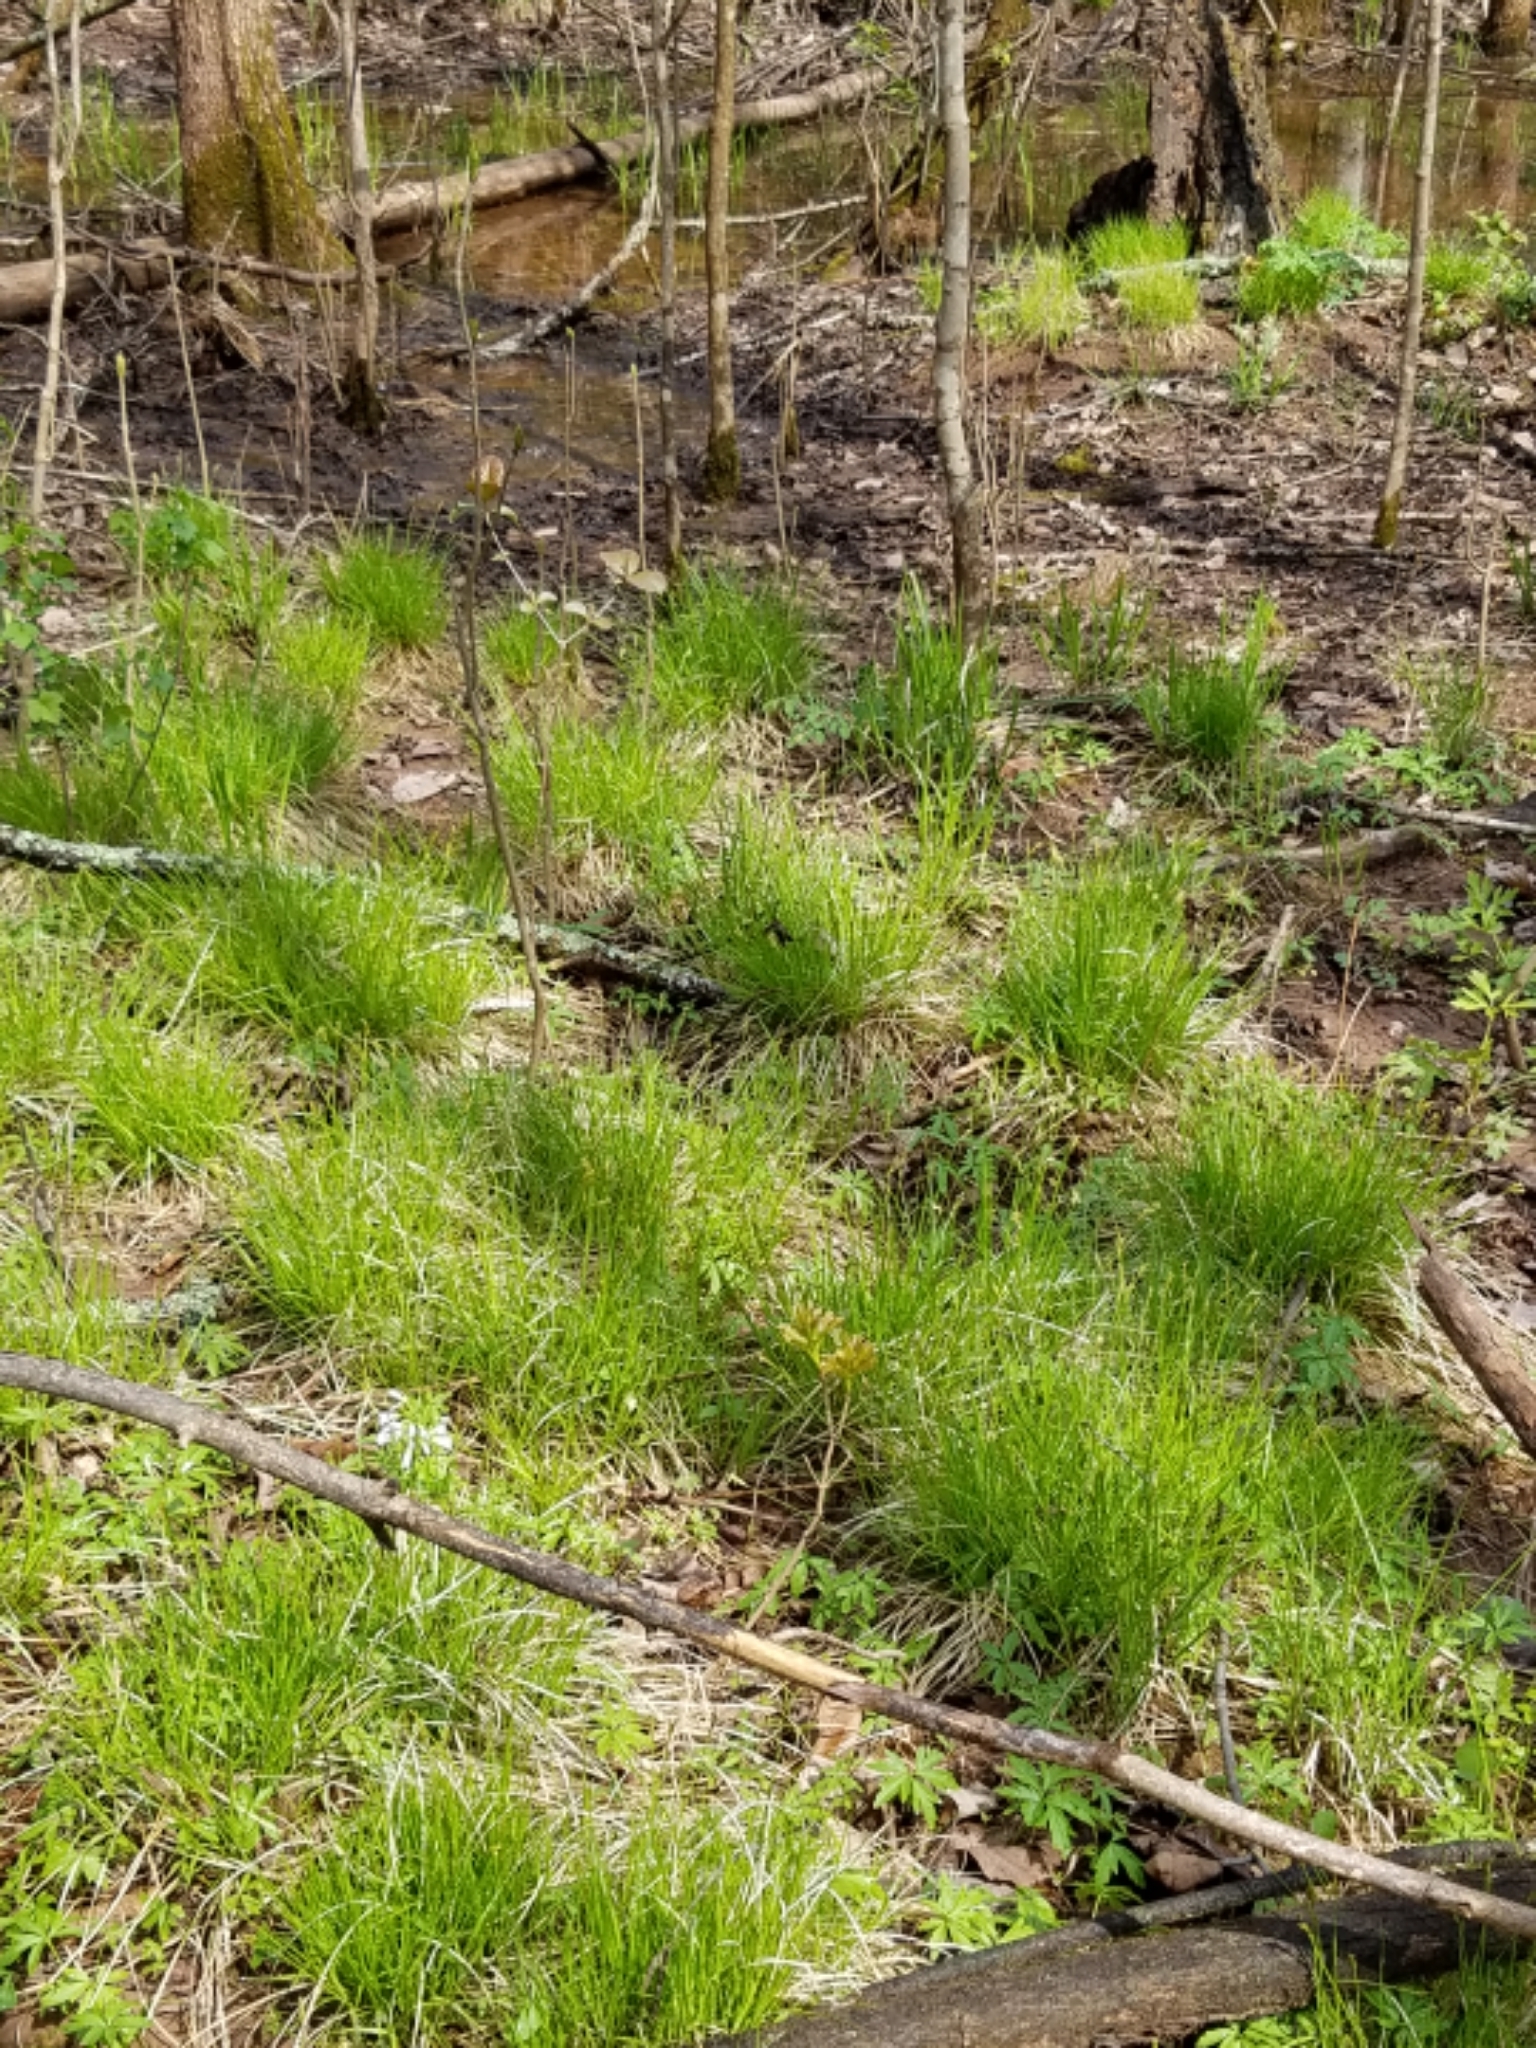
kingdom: Plantae
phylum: Tracheophyta
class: Liliopsida
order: Poales
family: Cyperaceae
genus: Carex
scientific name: Carex bromoides
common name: Brome hummock sedge
